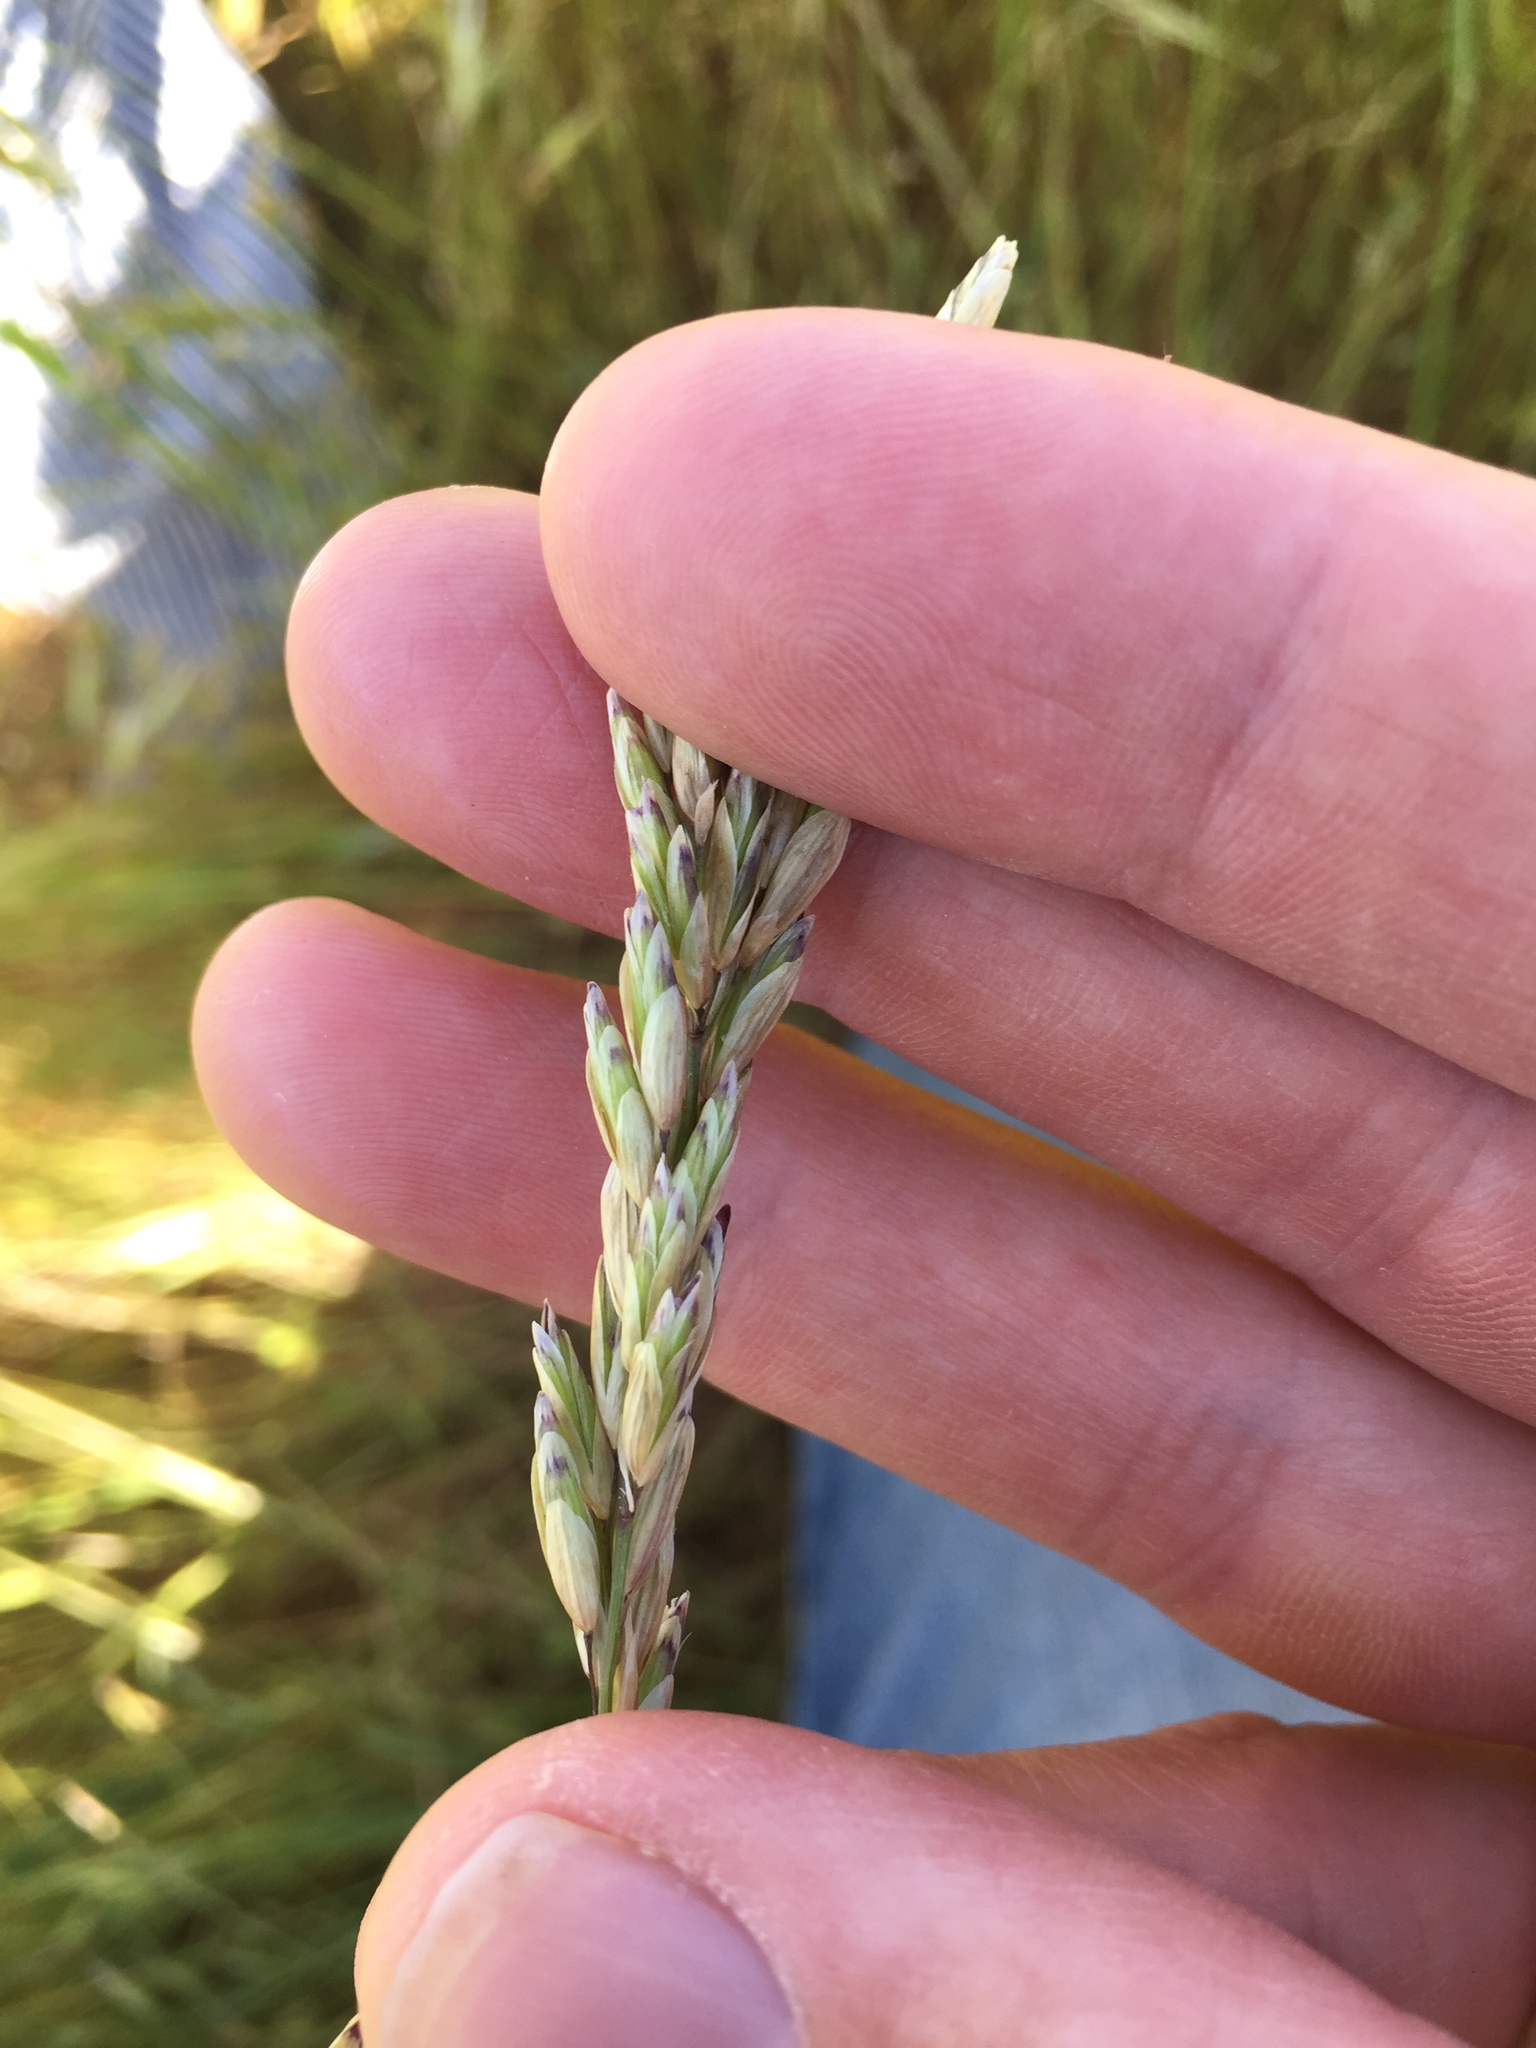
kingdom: Plantae
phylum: Tracheophyta
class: Liliopsida
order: Poales
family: Poaceae
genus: Melica
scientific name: Melica californica
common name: California melic
